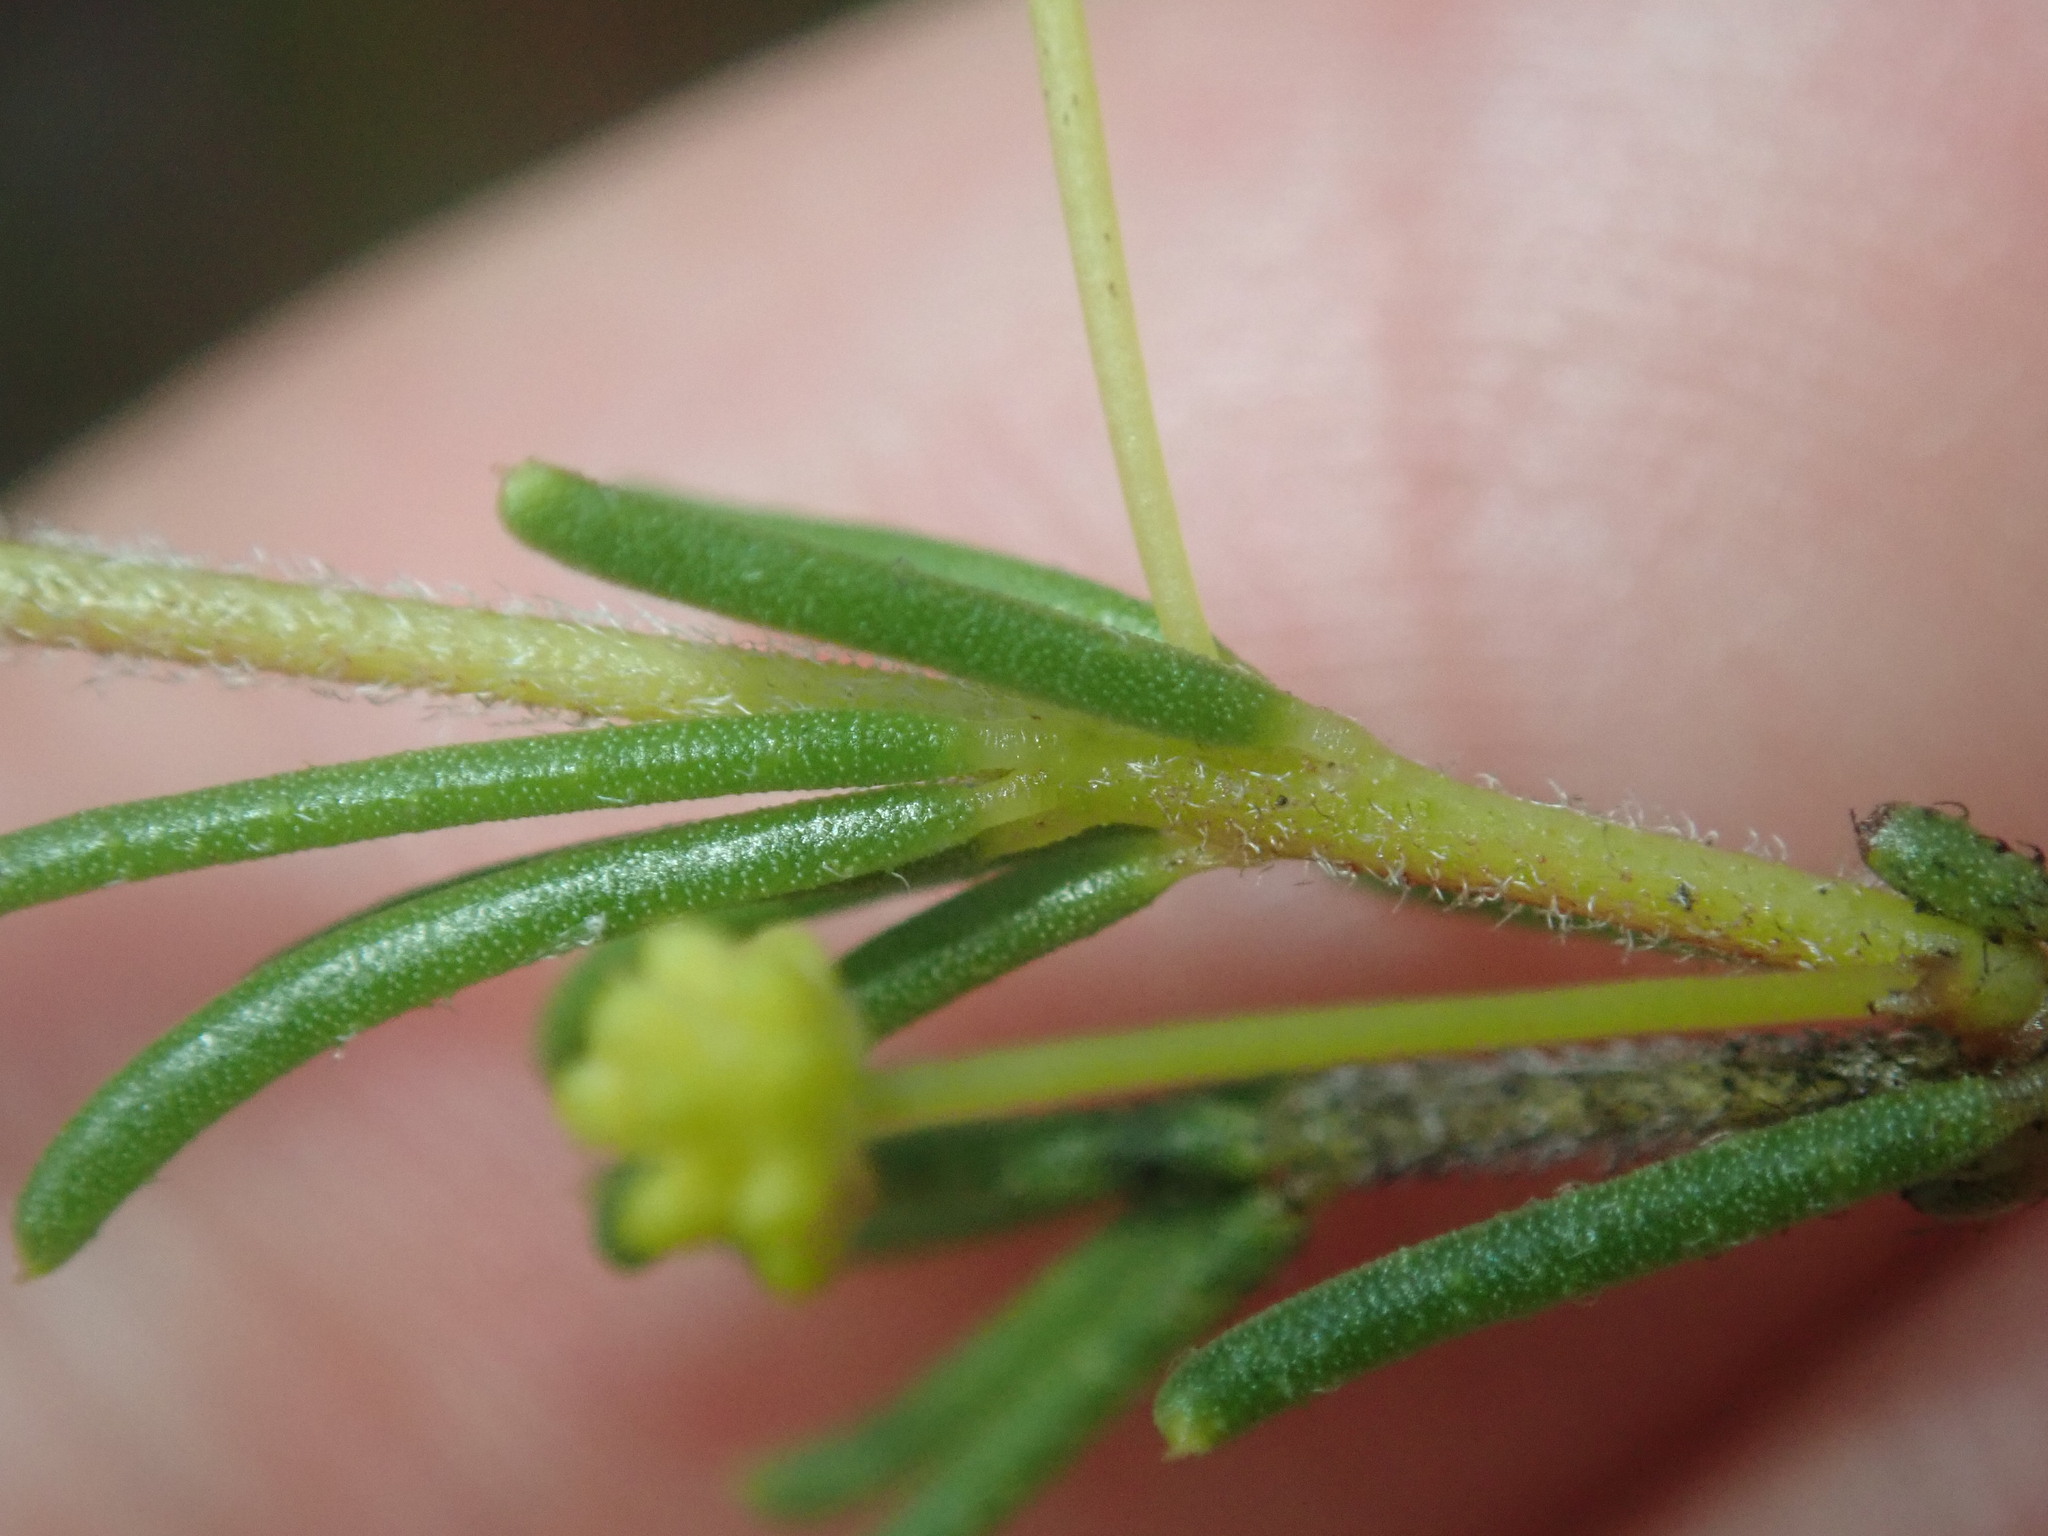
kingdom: Plantae
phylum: Tracheophyta
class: Magnoliopsida
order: Fabales
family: Fabaceae
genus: Acacia
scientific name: Acacia baueri
